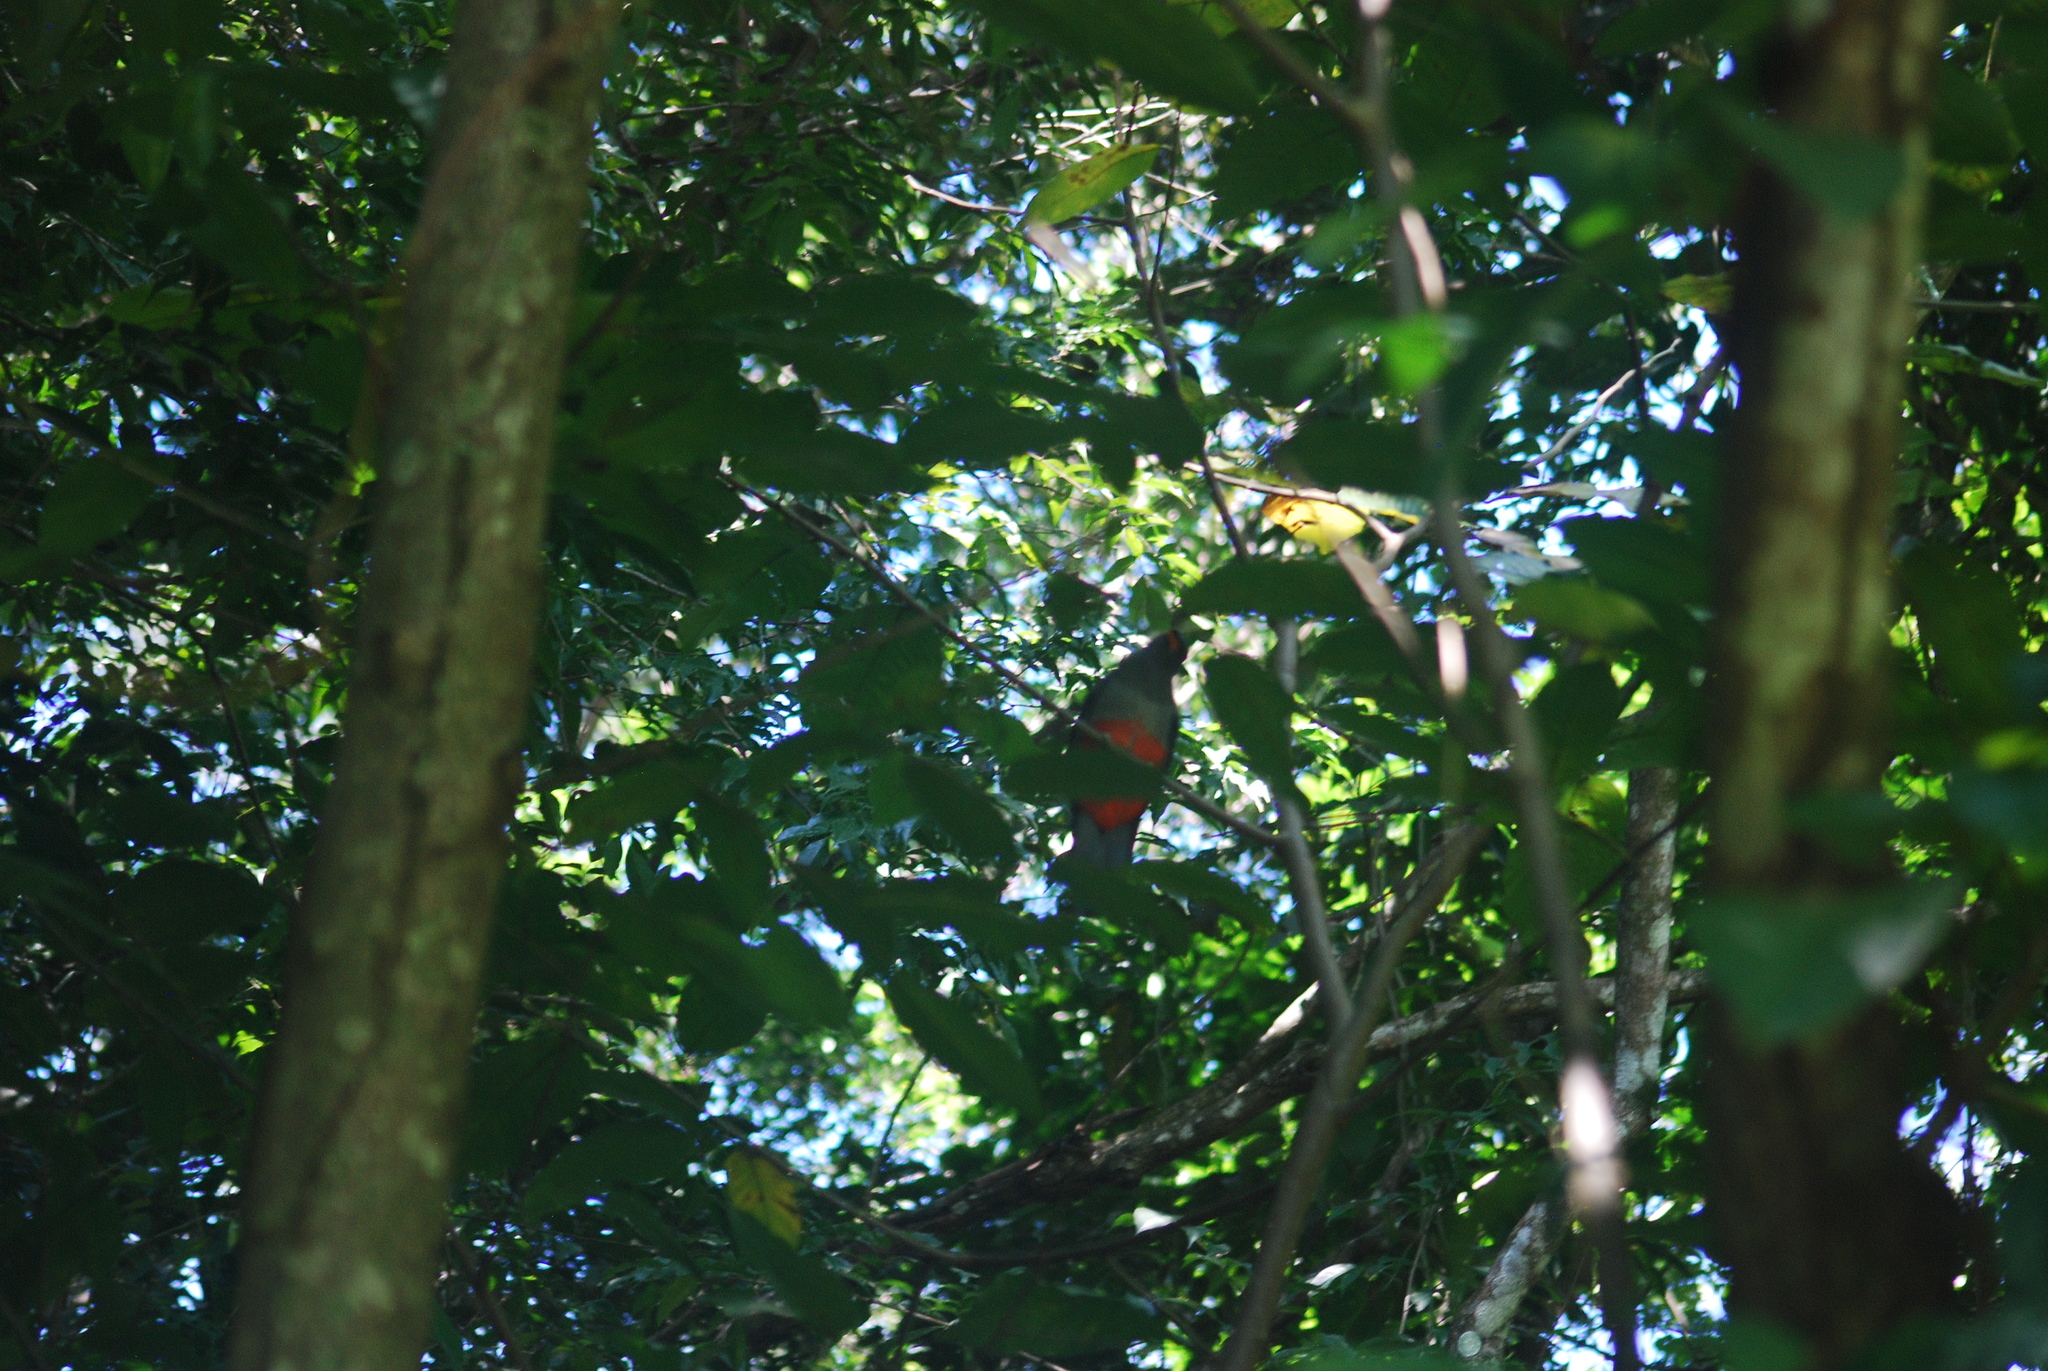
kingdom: Animalia
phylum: Chordata
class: Aves
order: Trogoniformes
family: Trogonidae
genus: Trogon
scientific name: Trogon massena
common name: Slaty-tailed trogon
